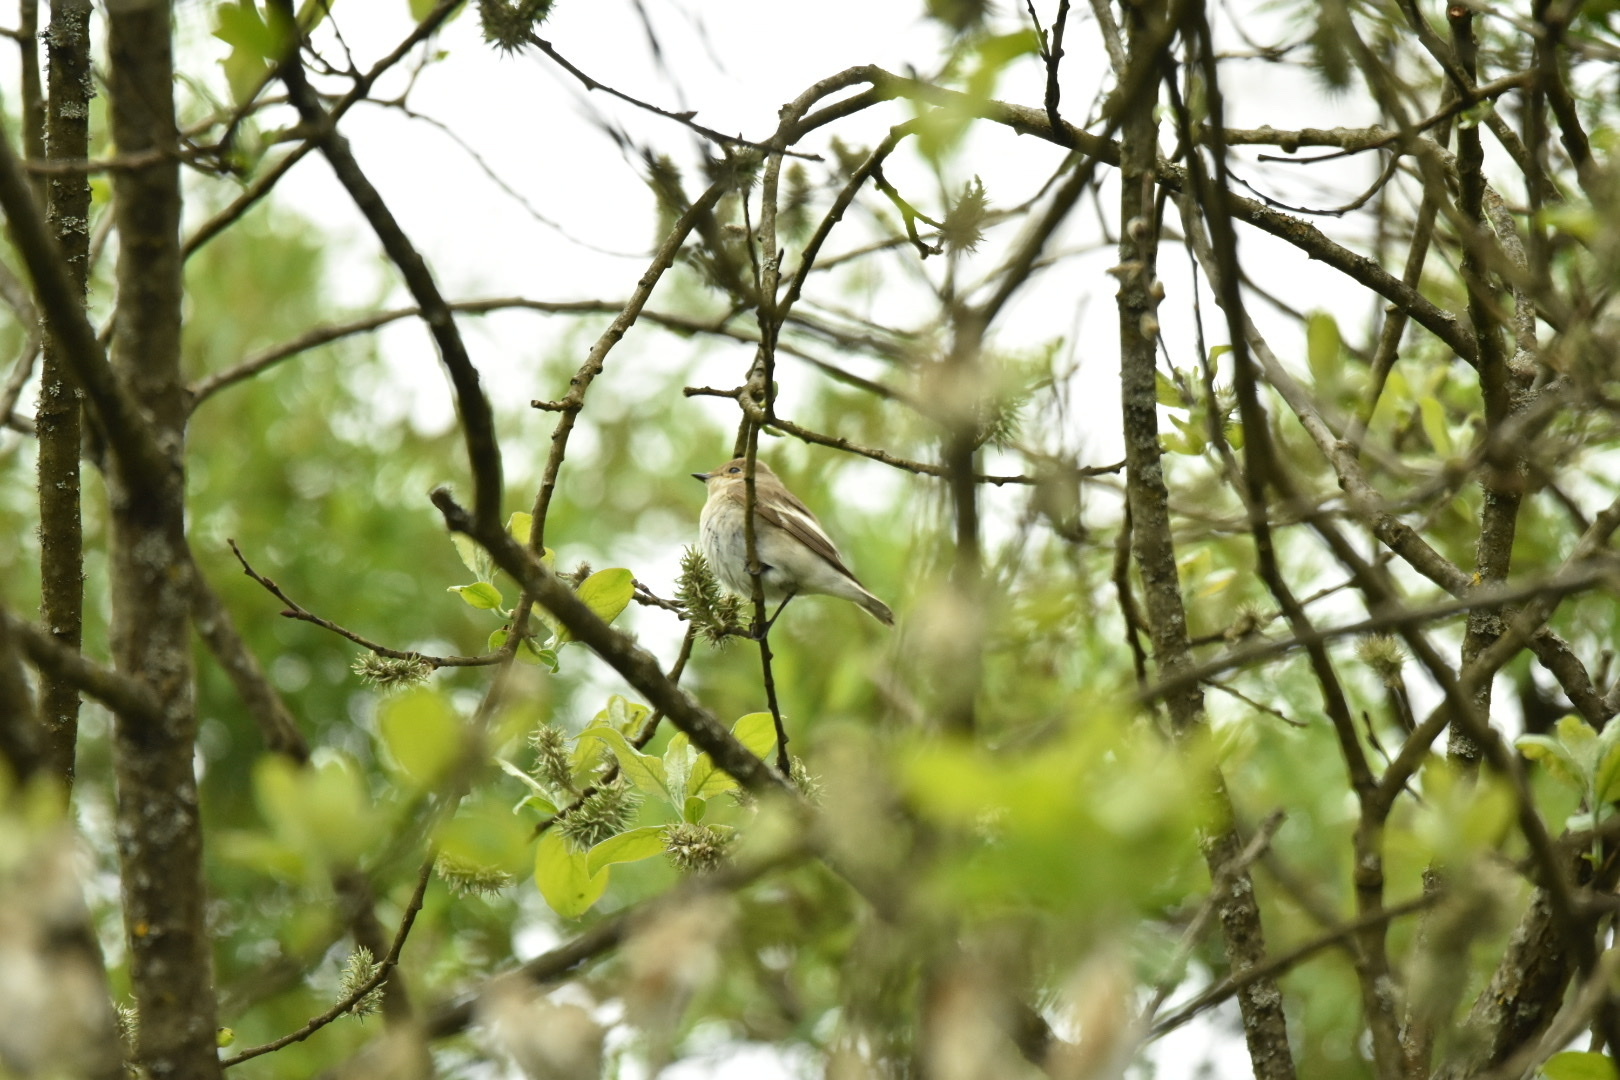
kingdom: Animalia
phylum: Chordata
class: Aves
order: Passeriformes
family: Muscicapidae
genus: Ficedula
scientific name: Ficedula hypoleuca
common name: European pied flycatcher
